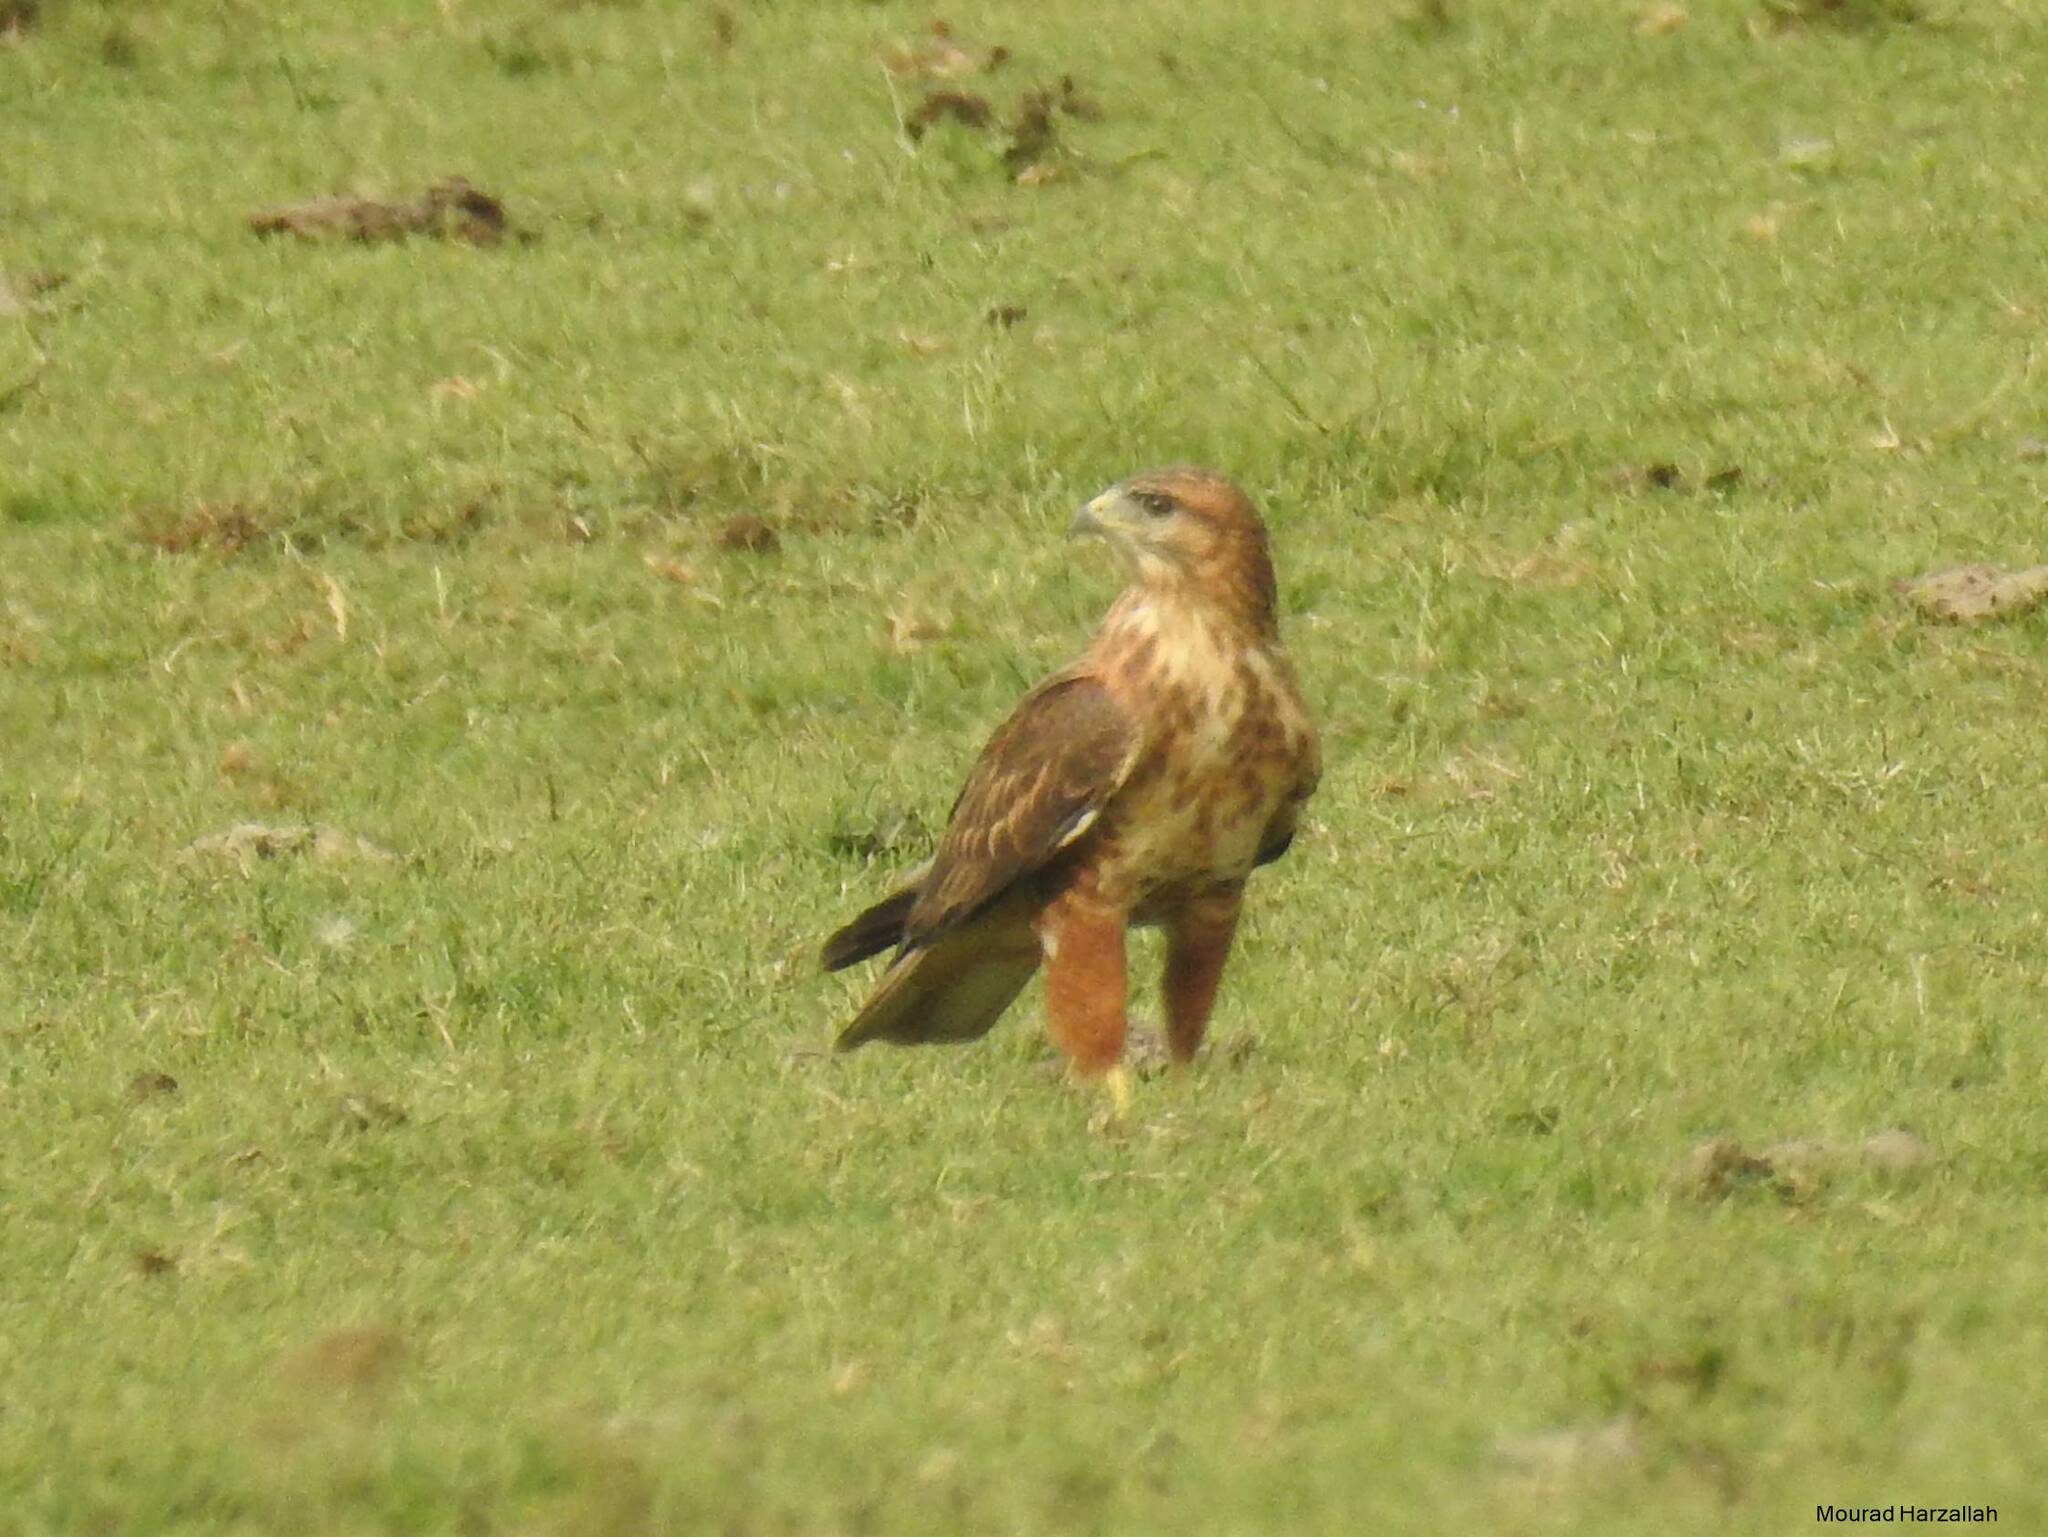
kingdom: Animalia
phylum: Chordata
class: Aves
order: Accipitriformes
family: Accipitridae
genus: Buteo
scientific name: Buteo rufinus
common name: Long-legged buzzard
